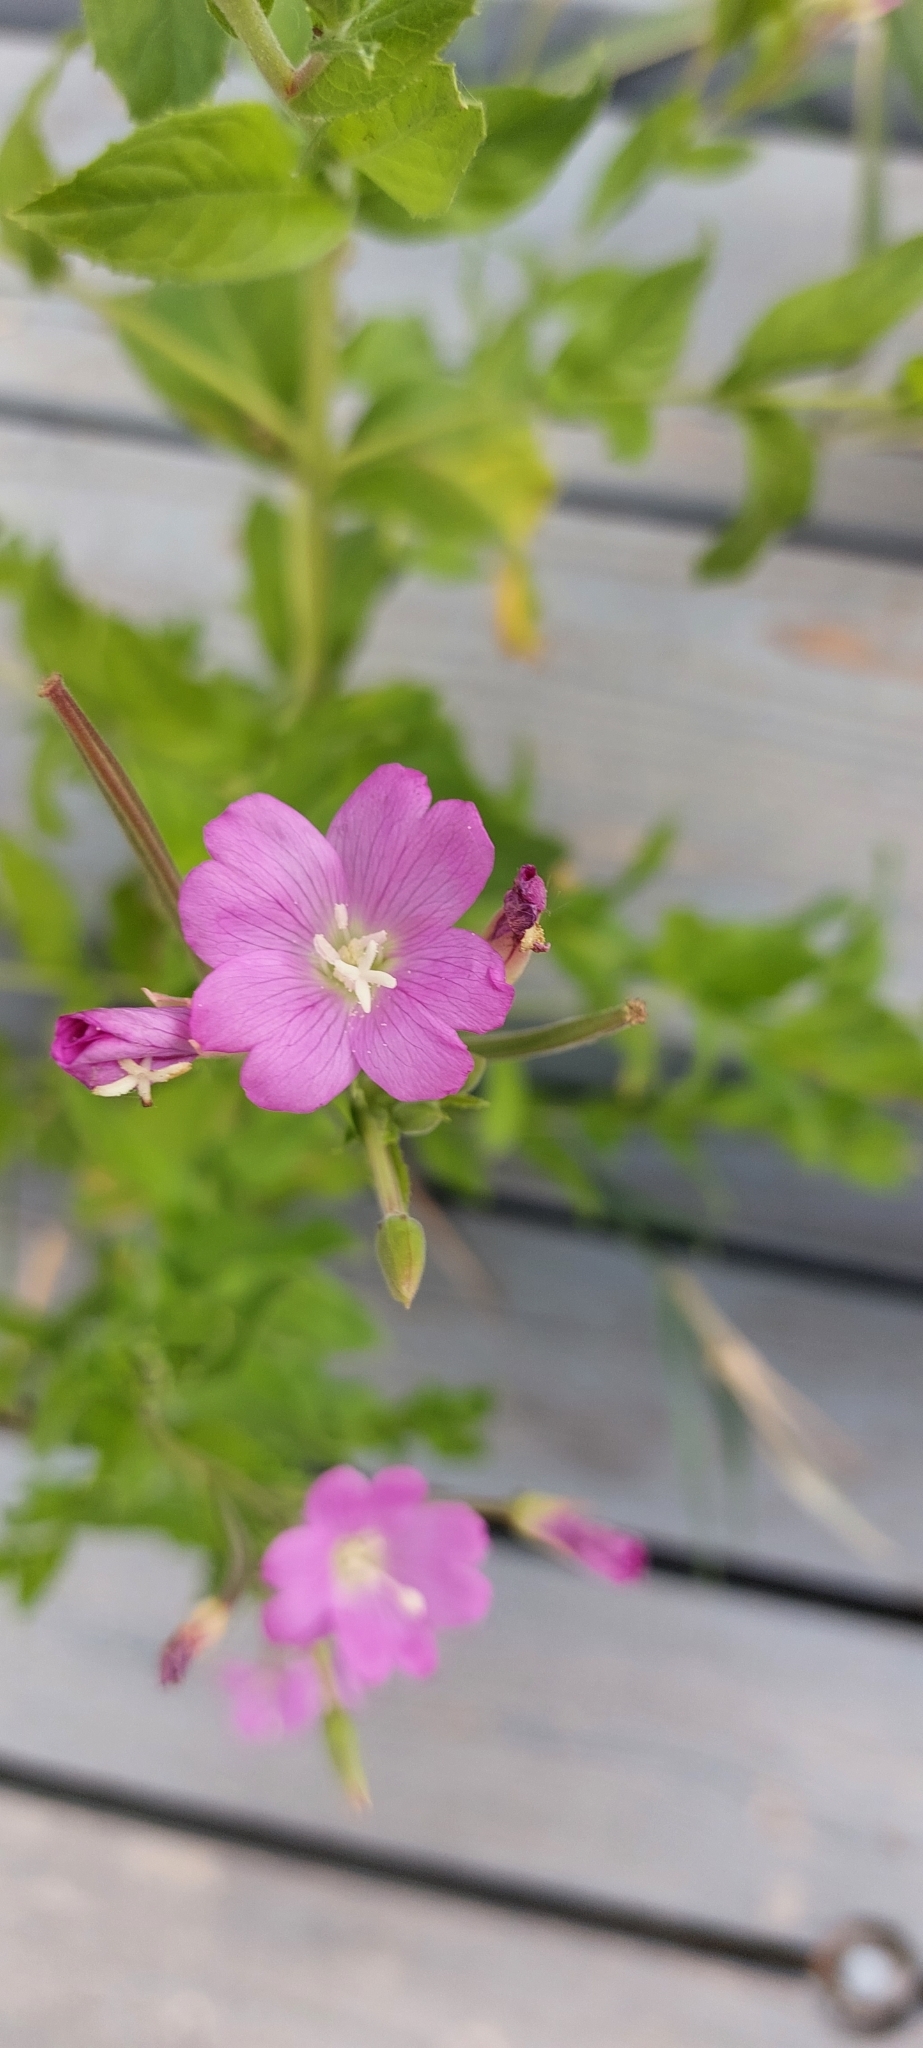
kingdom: Plantae
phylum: Tracheophyta
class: Magnoliopsida
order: Myrtales
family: Onagraceae
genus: Epilobium
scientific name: Epilobium hirsutum
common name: Great willowherb
